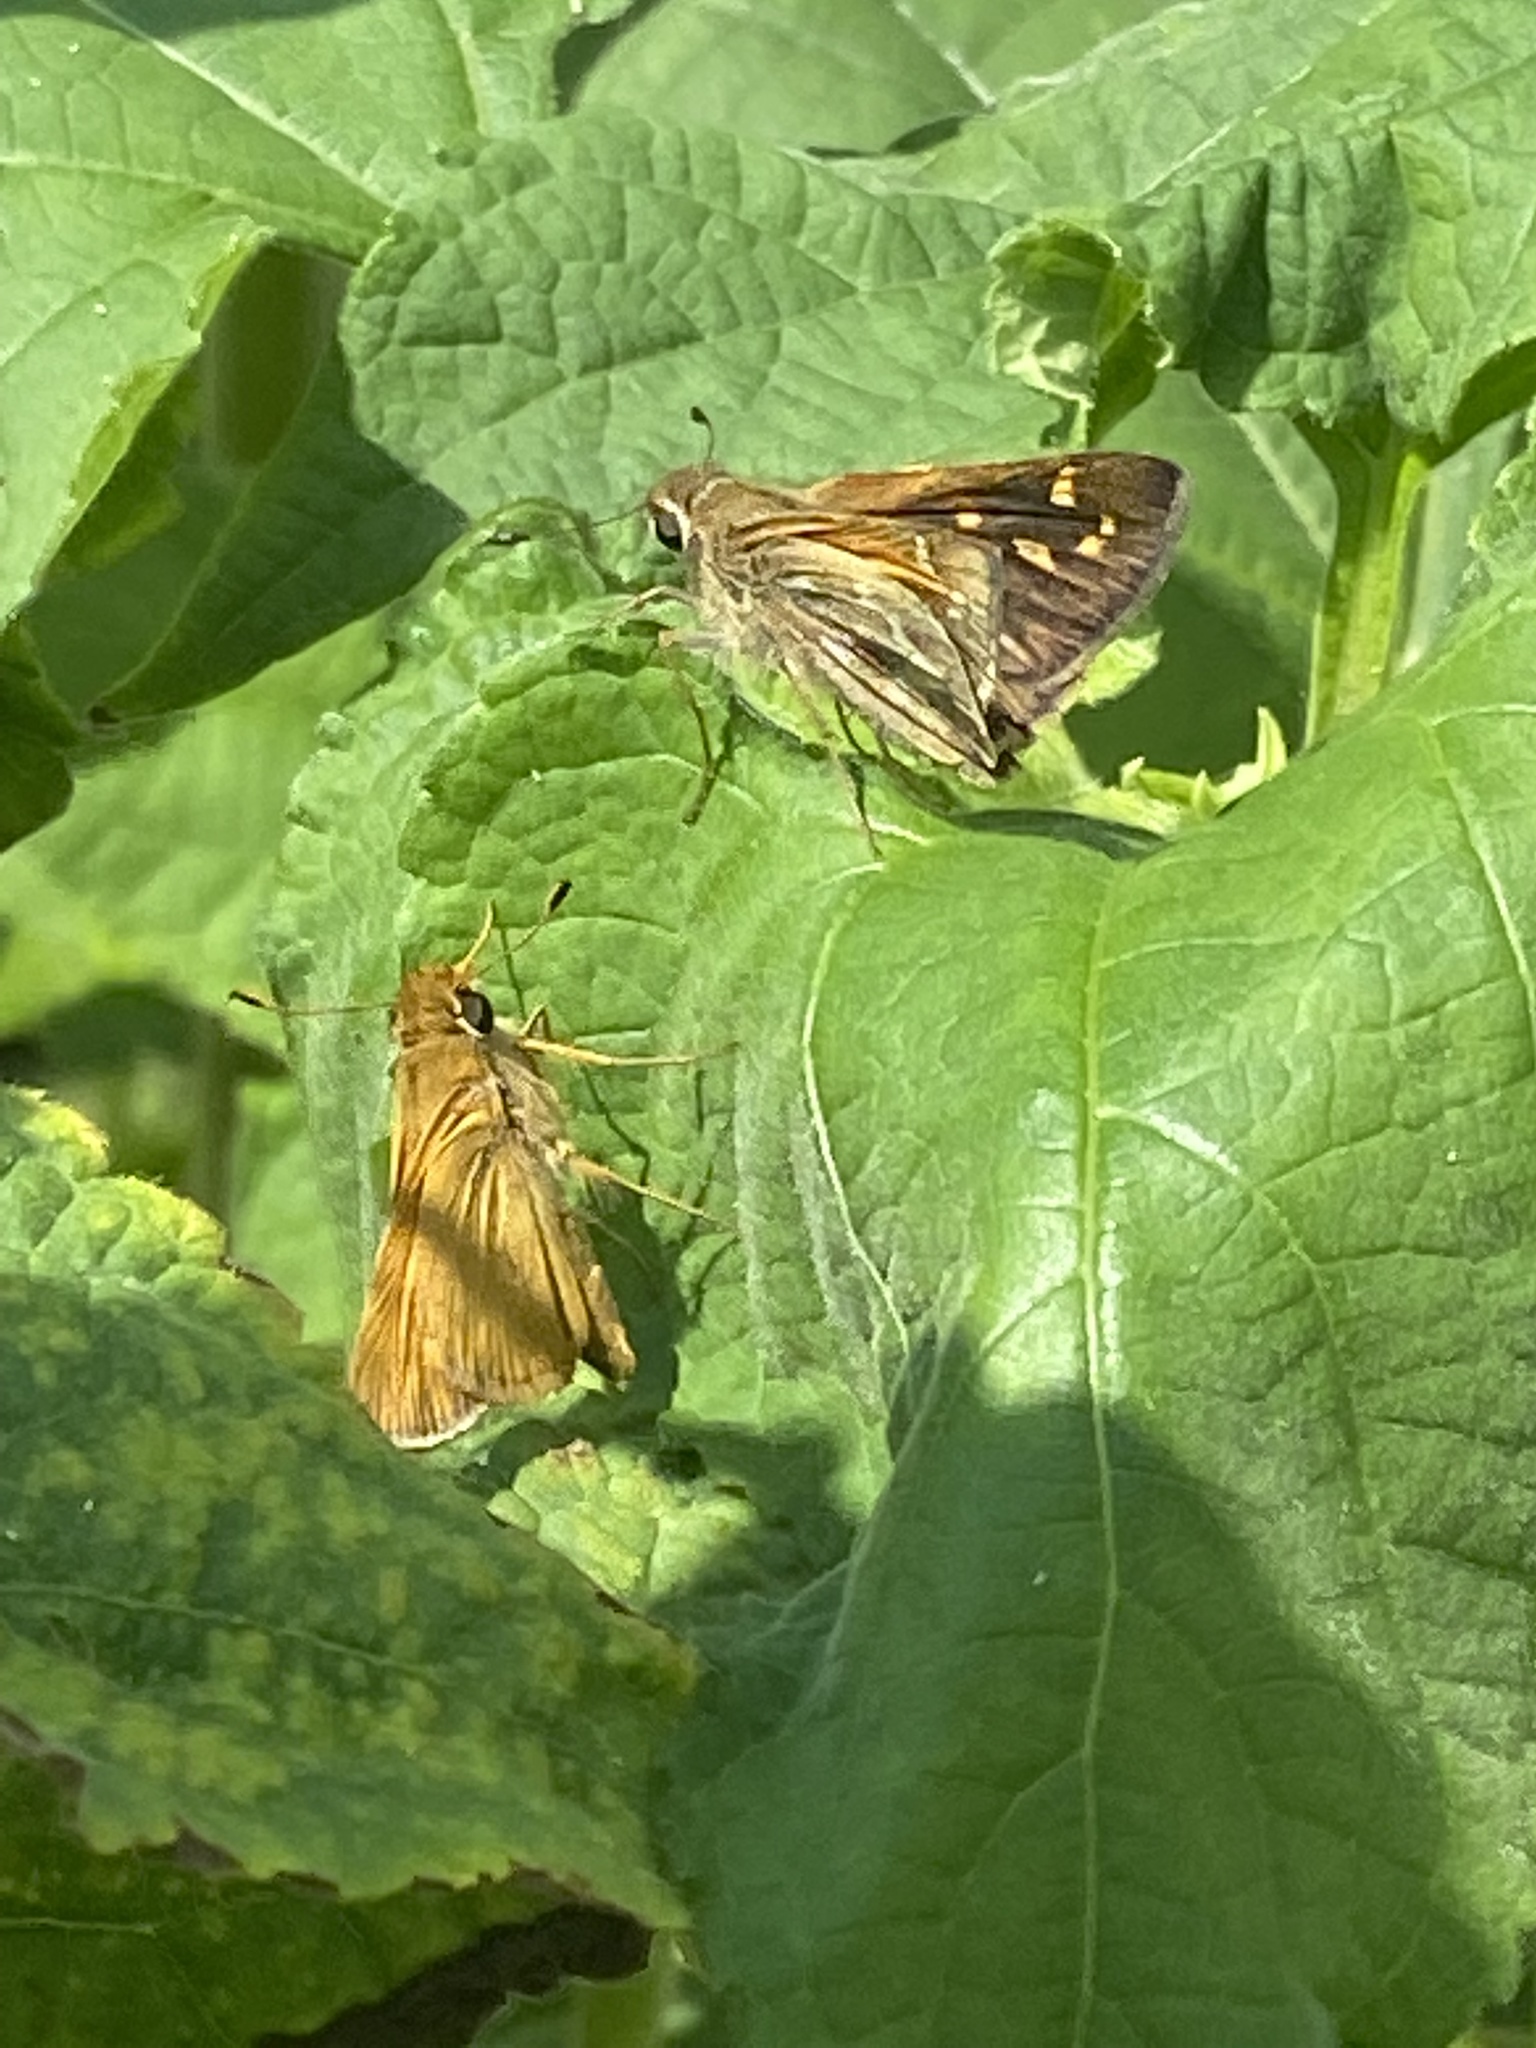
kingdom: Animalia
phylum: Arthropoda
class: Insecta
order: Lepidoptera
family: Hesperiidae
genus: Atalopedes
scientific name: Atalopedes
